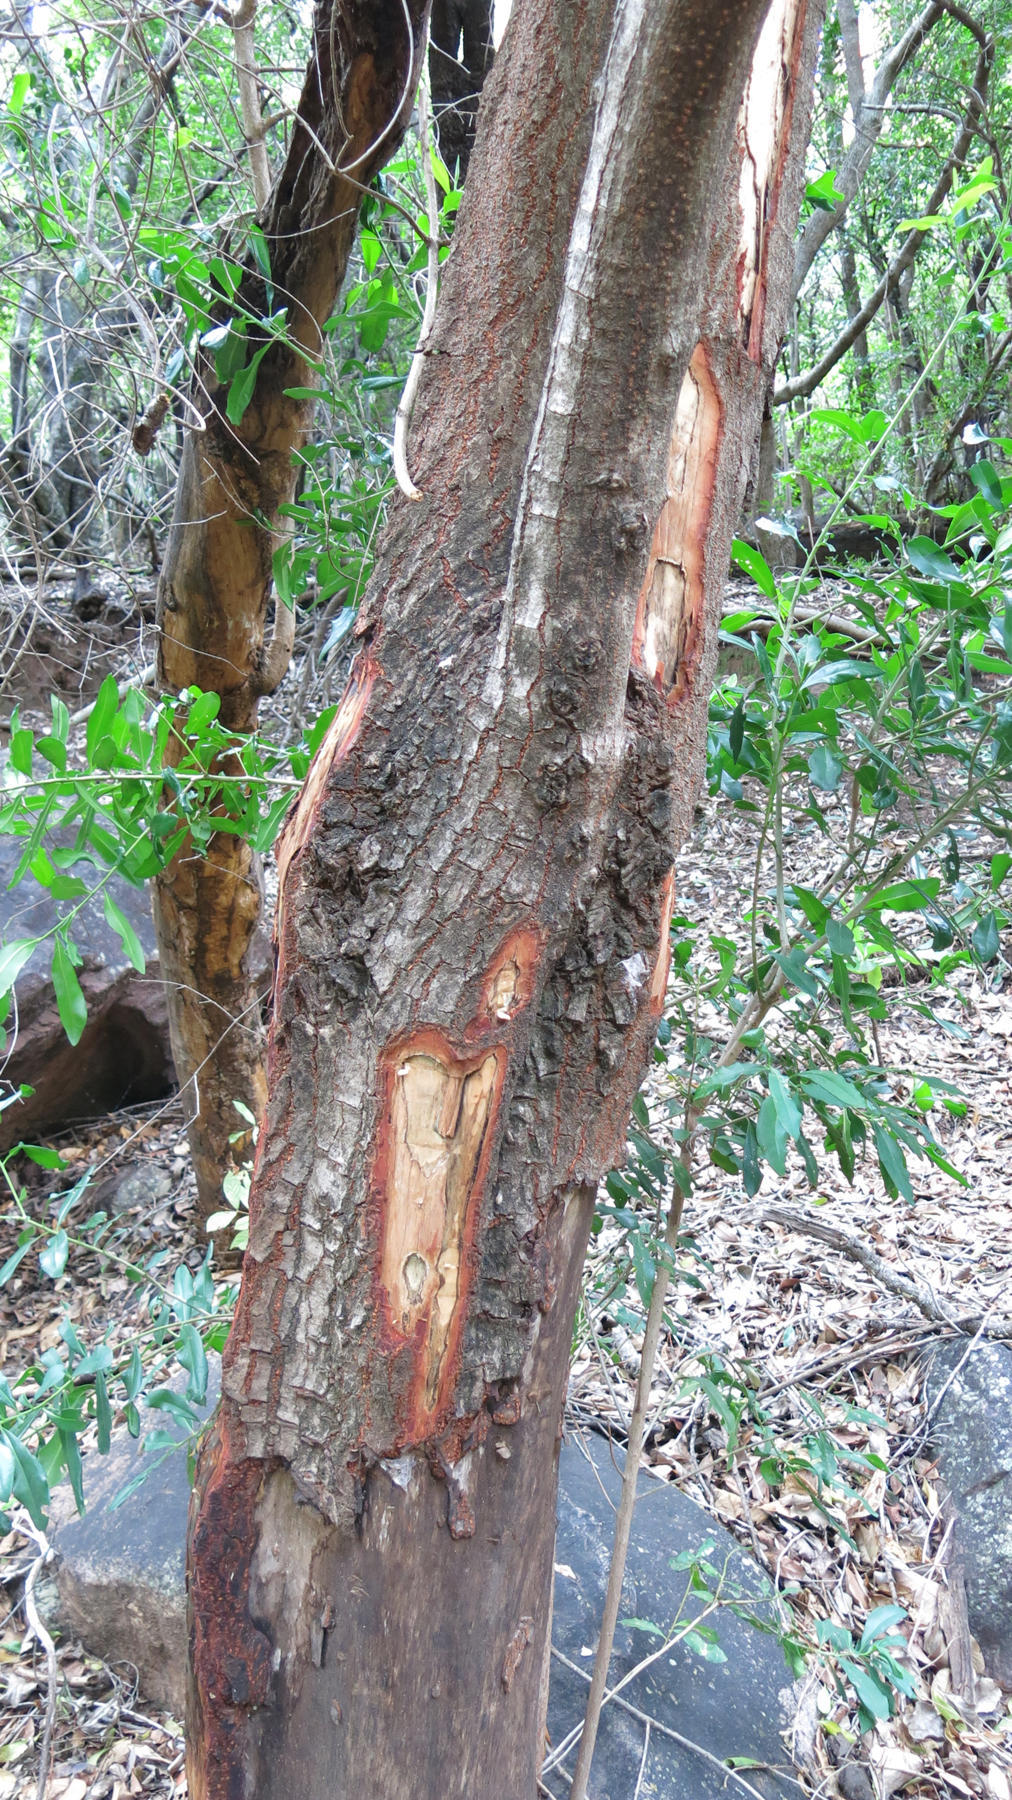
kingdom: Plantae
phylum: Tracheophyta
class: Magnoliopsida
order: Canellales
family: Canellaceae
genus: Warburgia
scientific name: Warburgia salutaris
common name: Pepper bark tree
